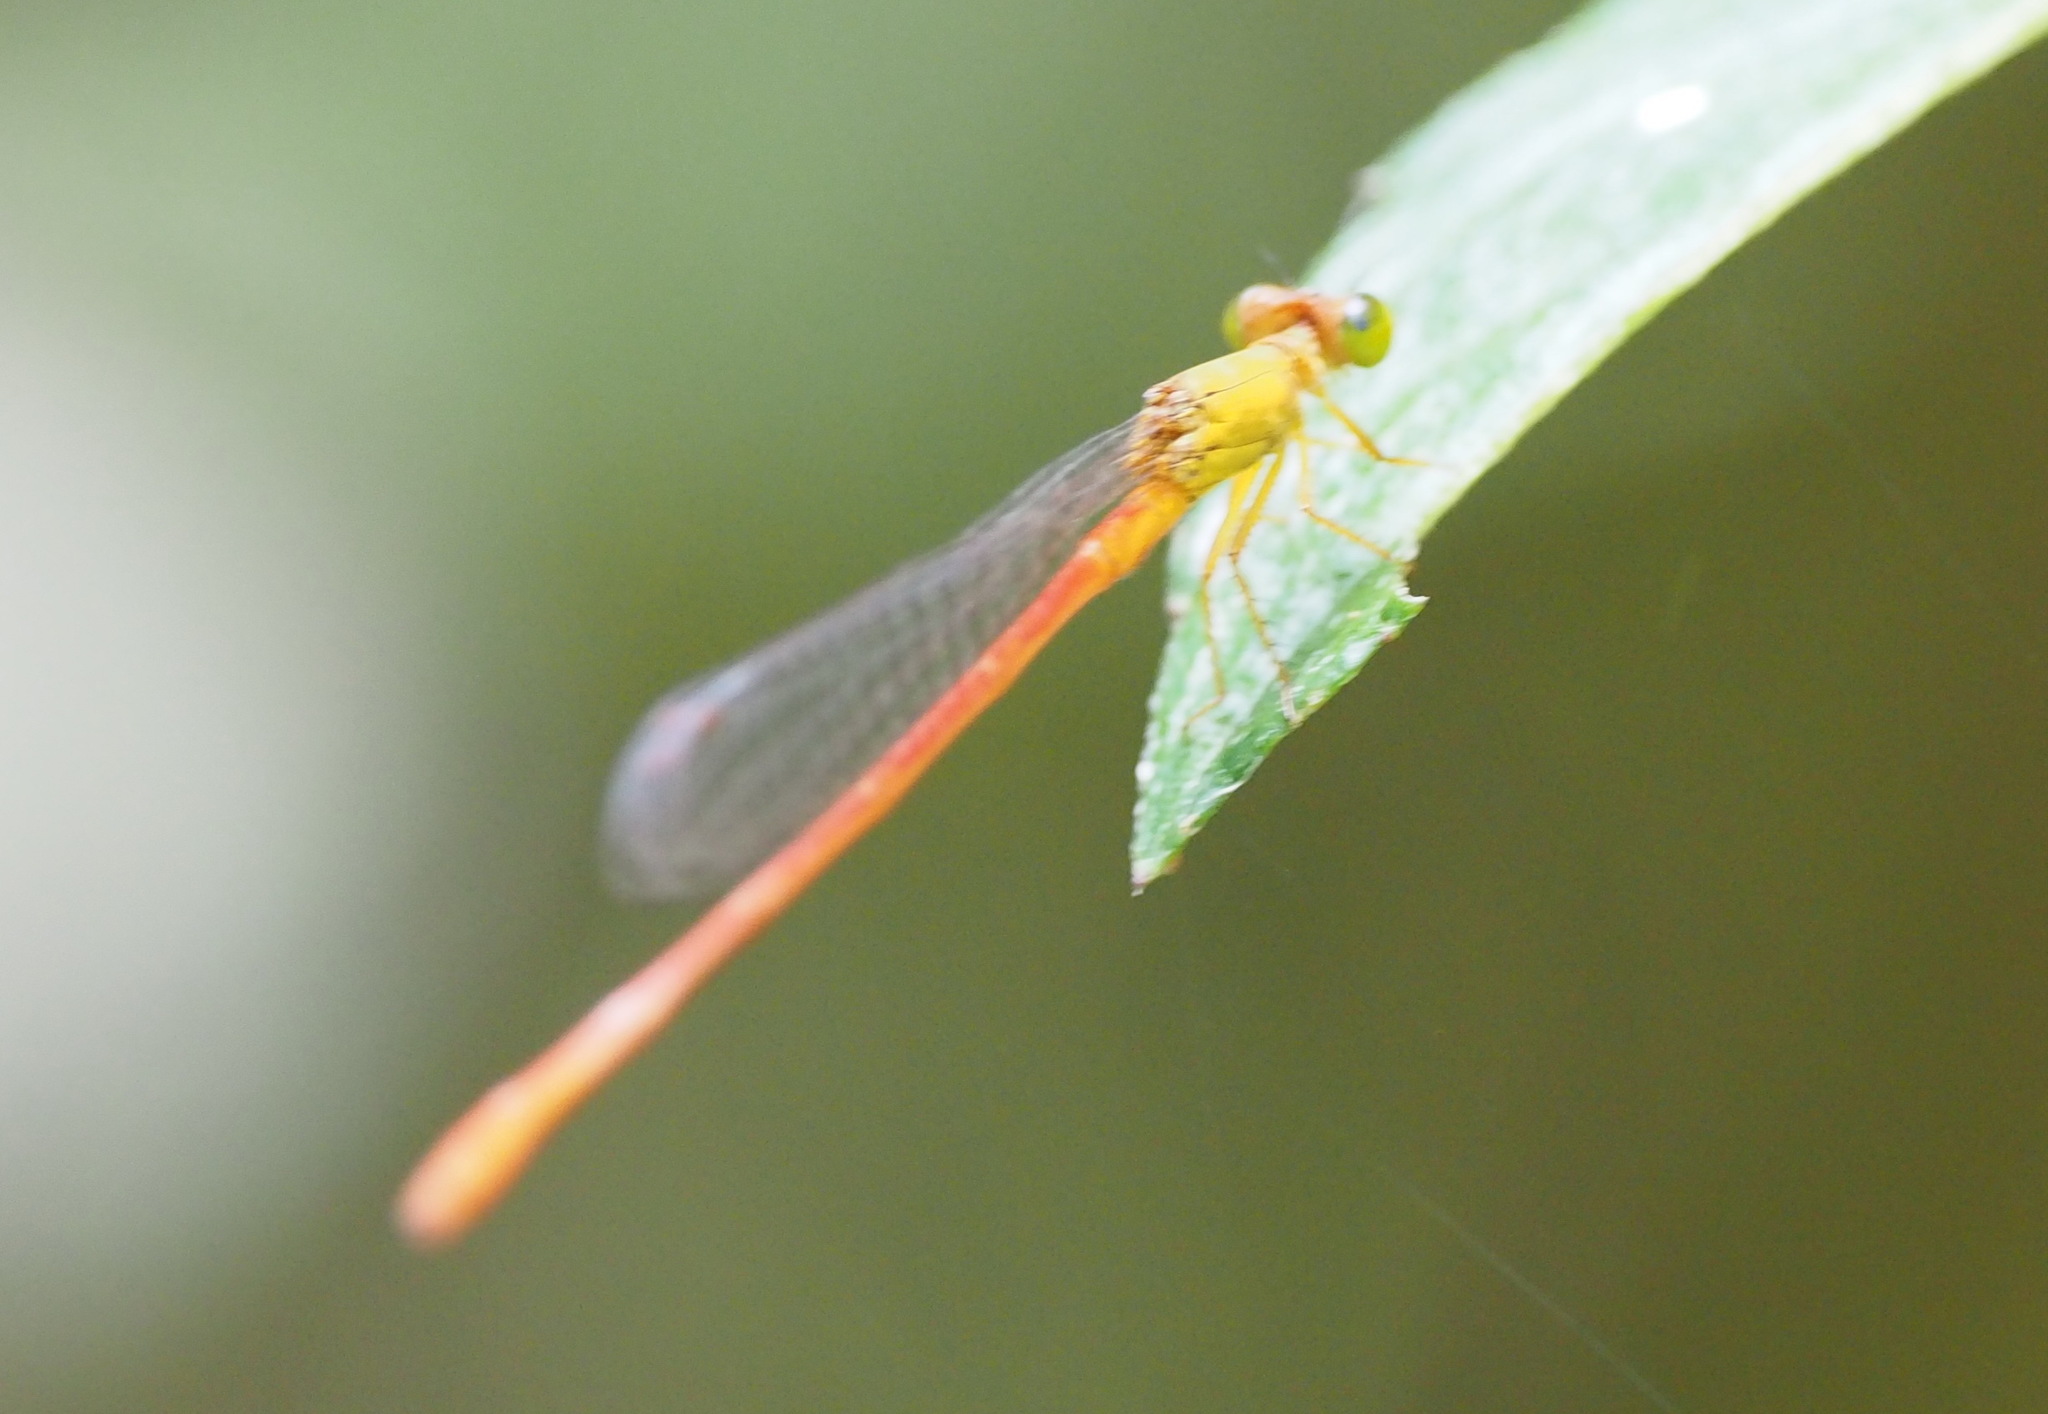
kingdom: Animalia
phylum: Arthropoda
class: Insecta
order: Odonata
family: Coenagrionidae
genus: Ceriagrion
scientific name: Ceriagrion auranticum
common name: Orange-tailed sprite
